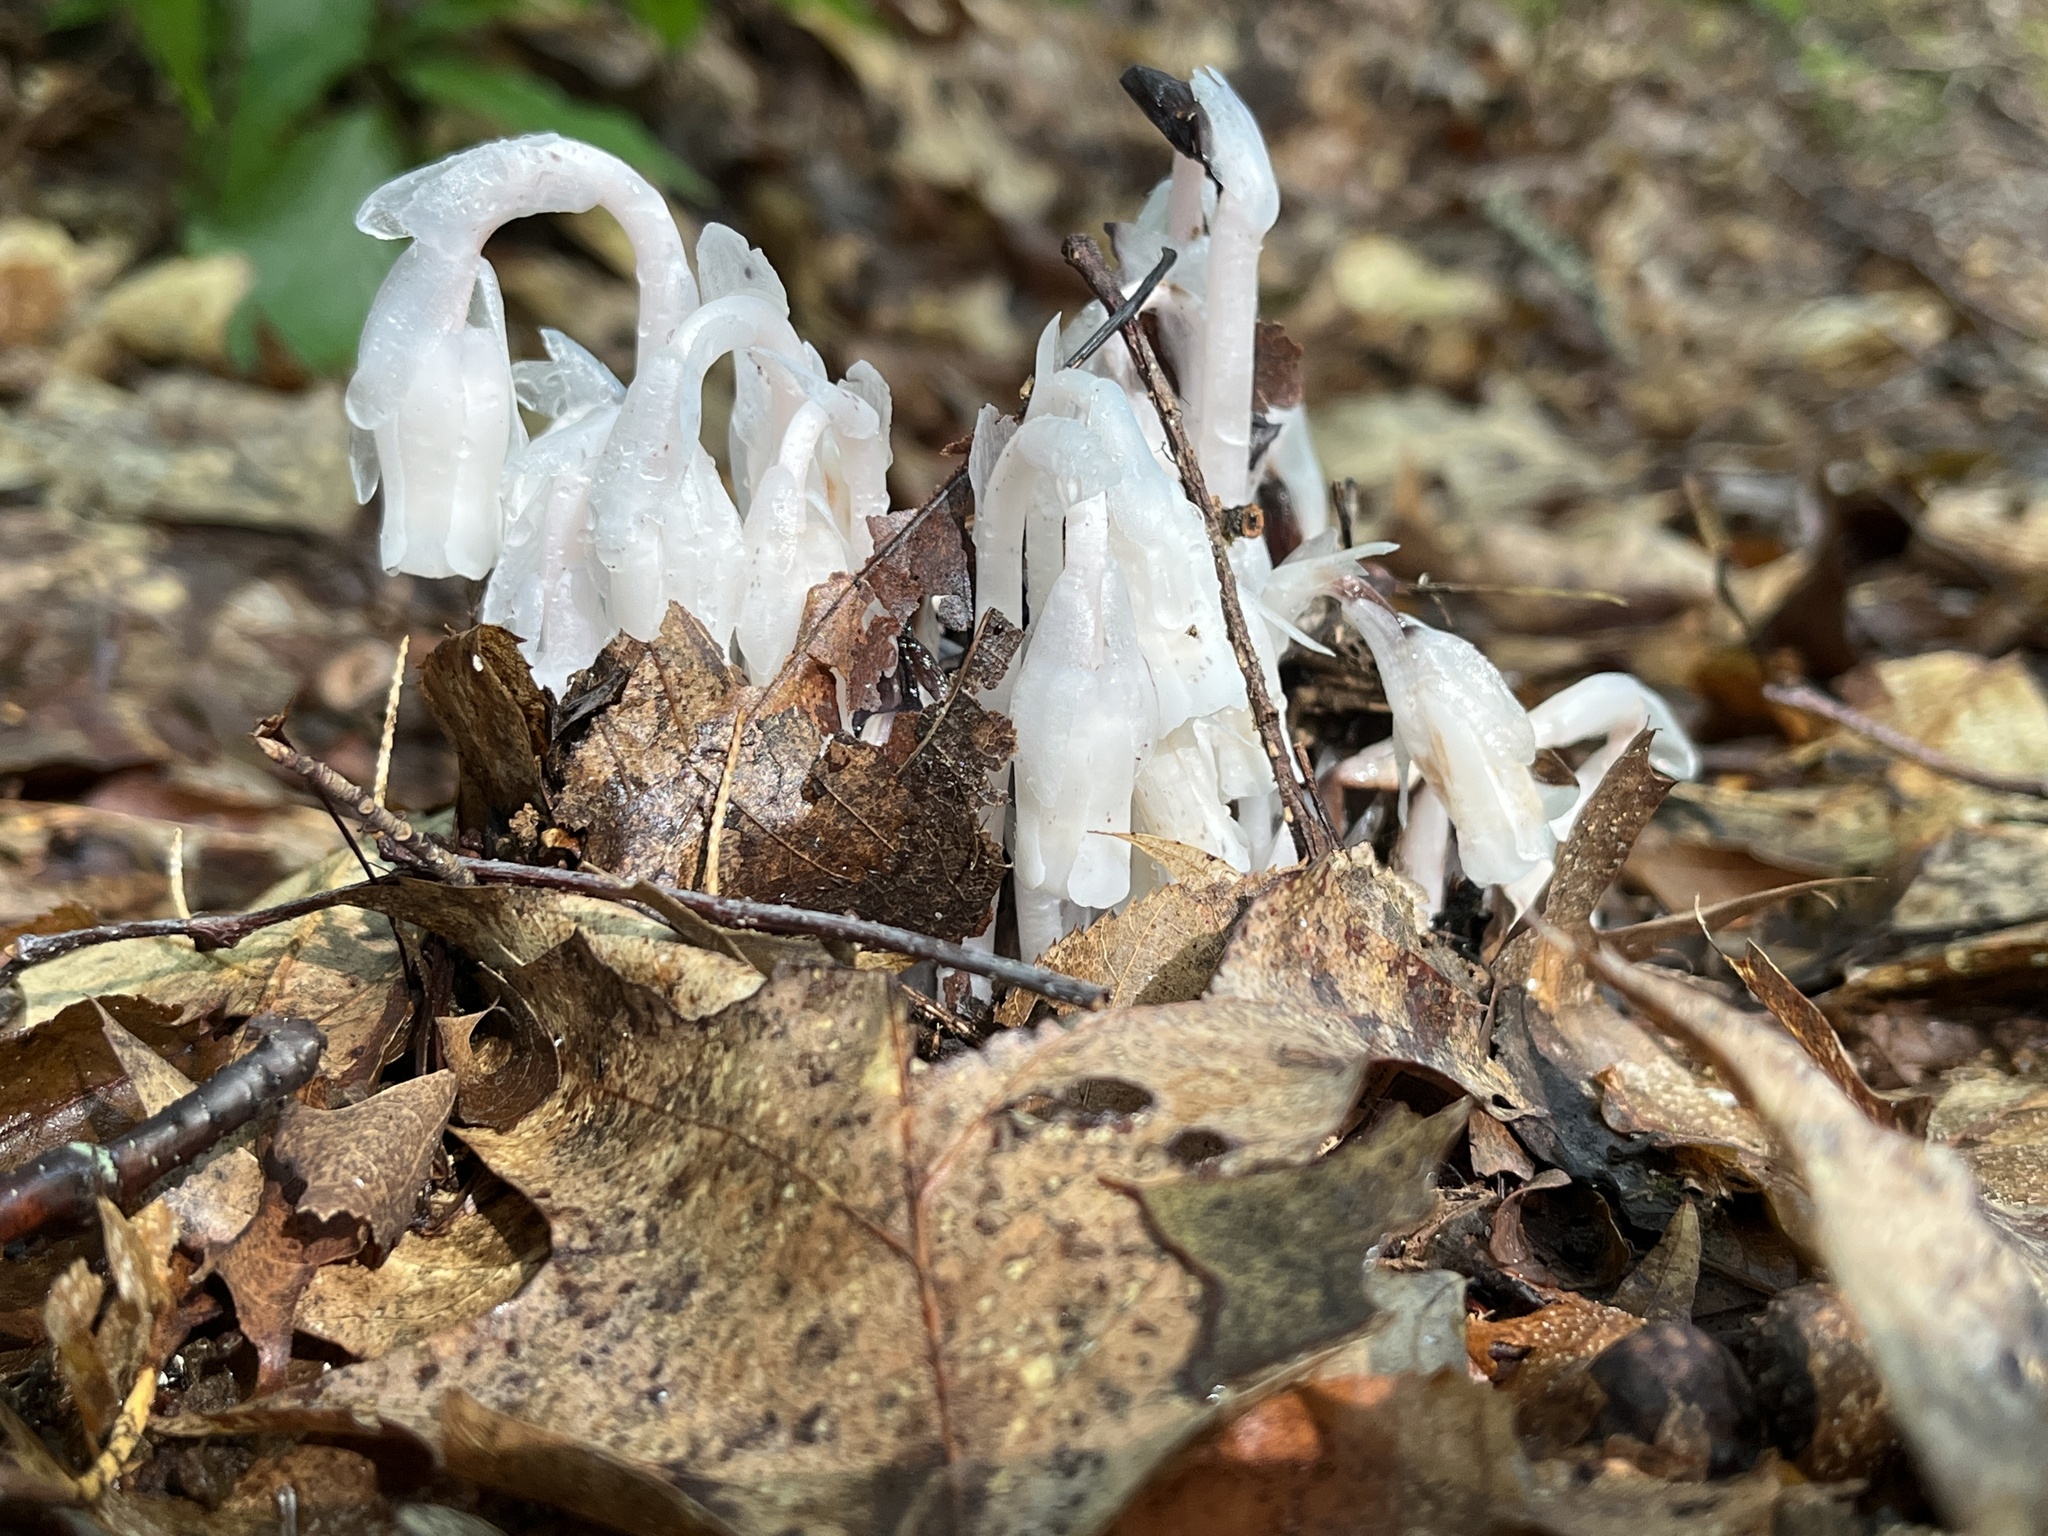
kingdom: Plantae
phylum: Tracheophyta
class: Magnoliopsida
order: Ericales
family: Ericaceae
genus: Monotropa
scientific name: Monotropa uniflora
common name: Convulsion root
